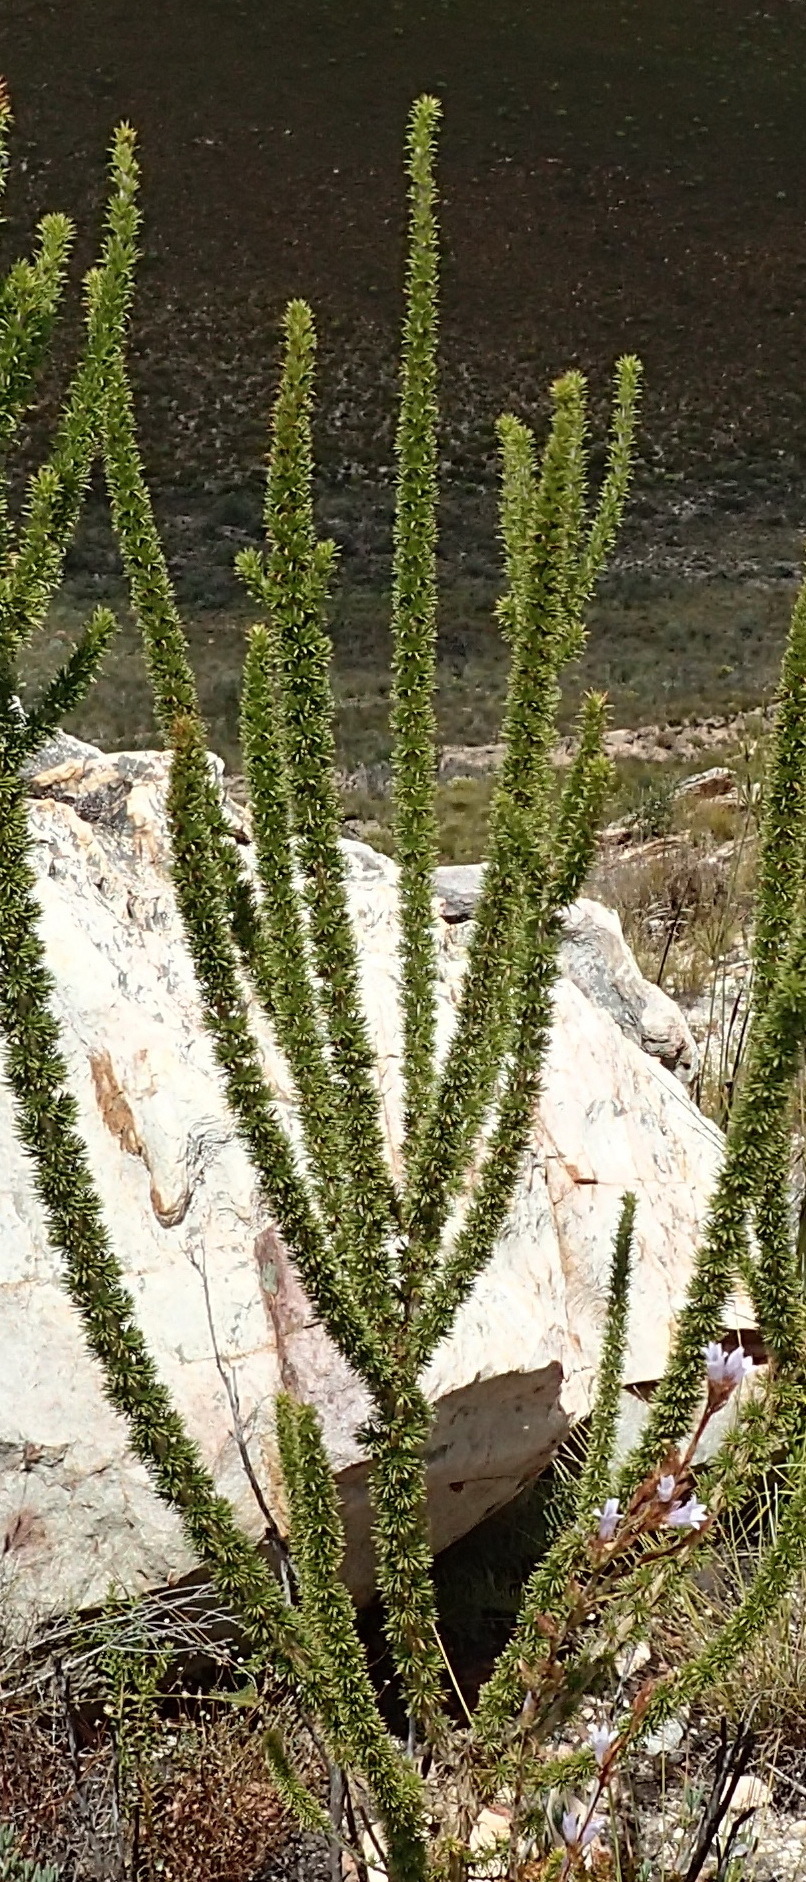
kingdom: Plantae
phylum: Tracheophyta
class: Magnoliopsida
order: Fabales
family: Fabaceae
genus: Aspalathus
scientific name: Aspalathus sceptrumaureum
